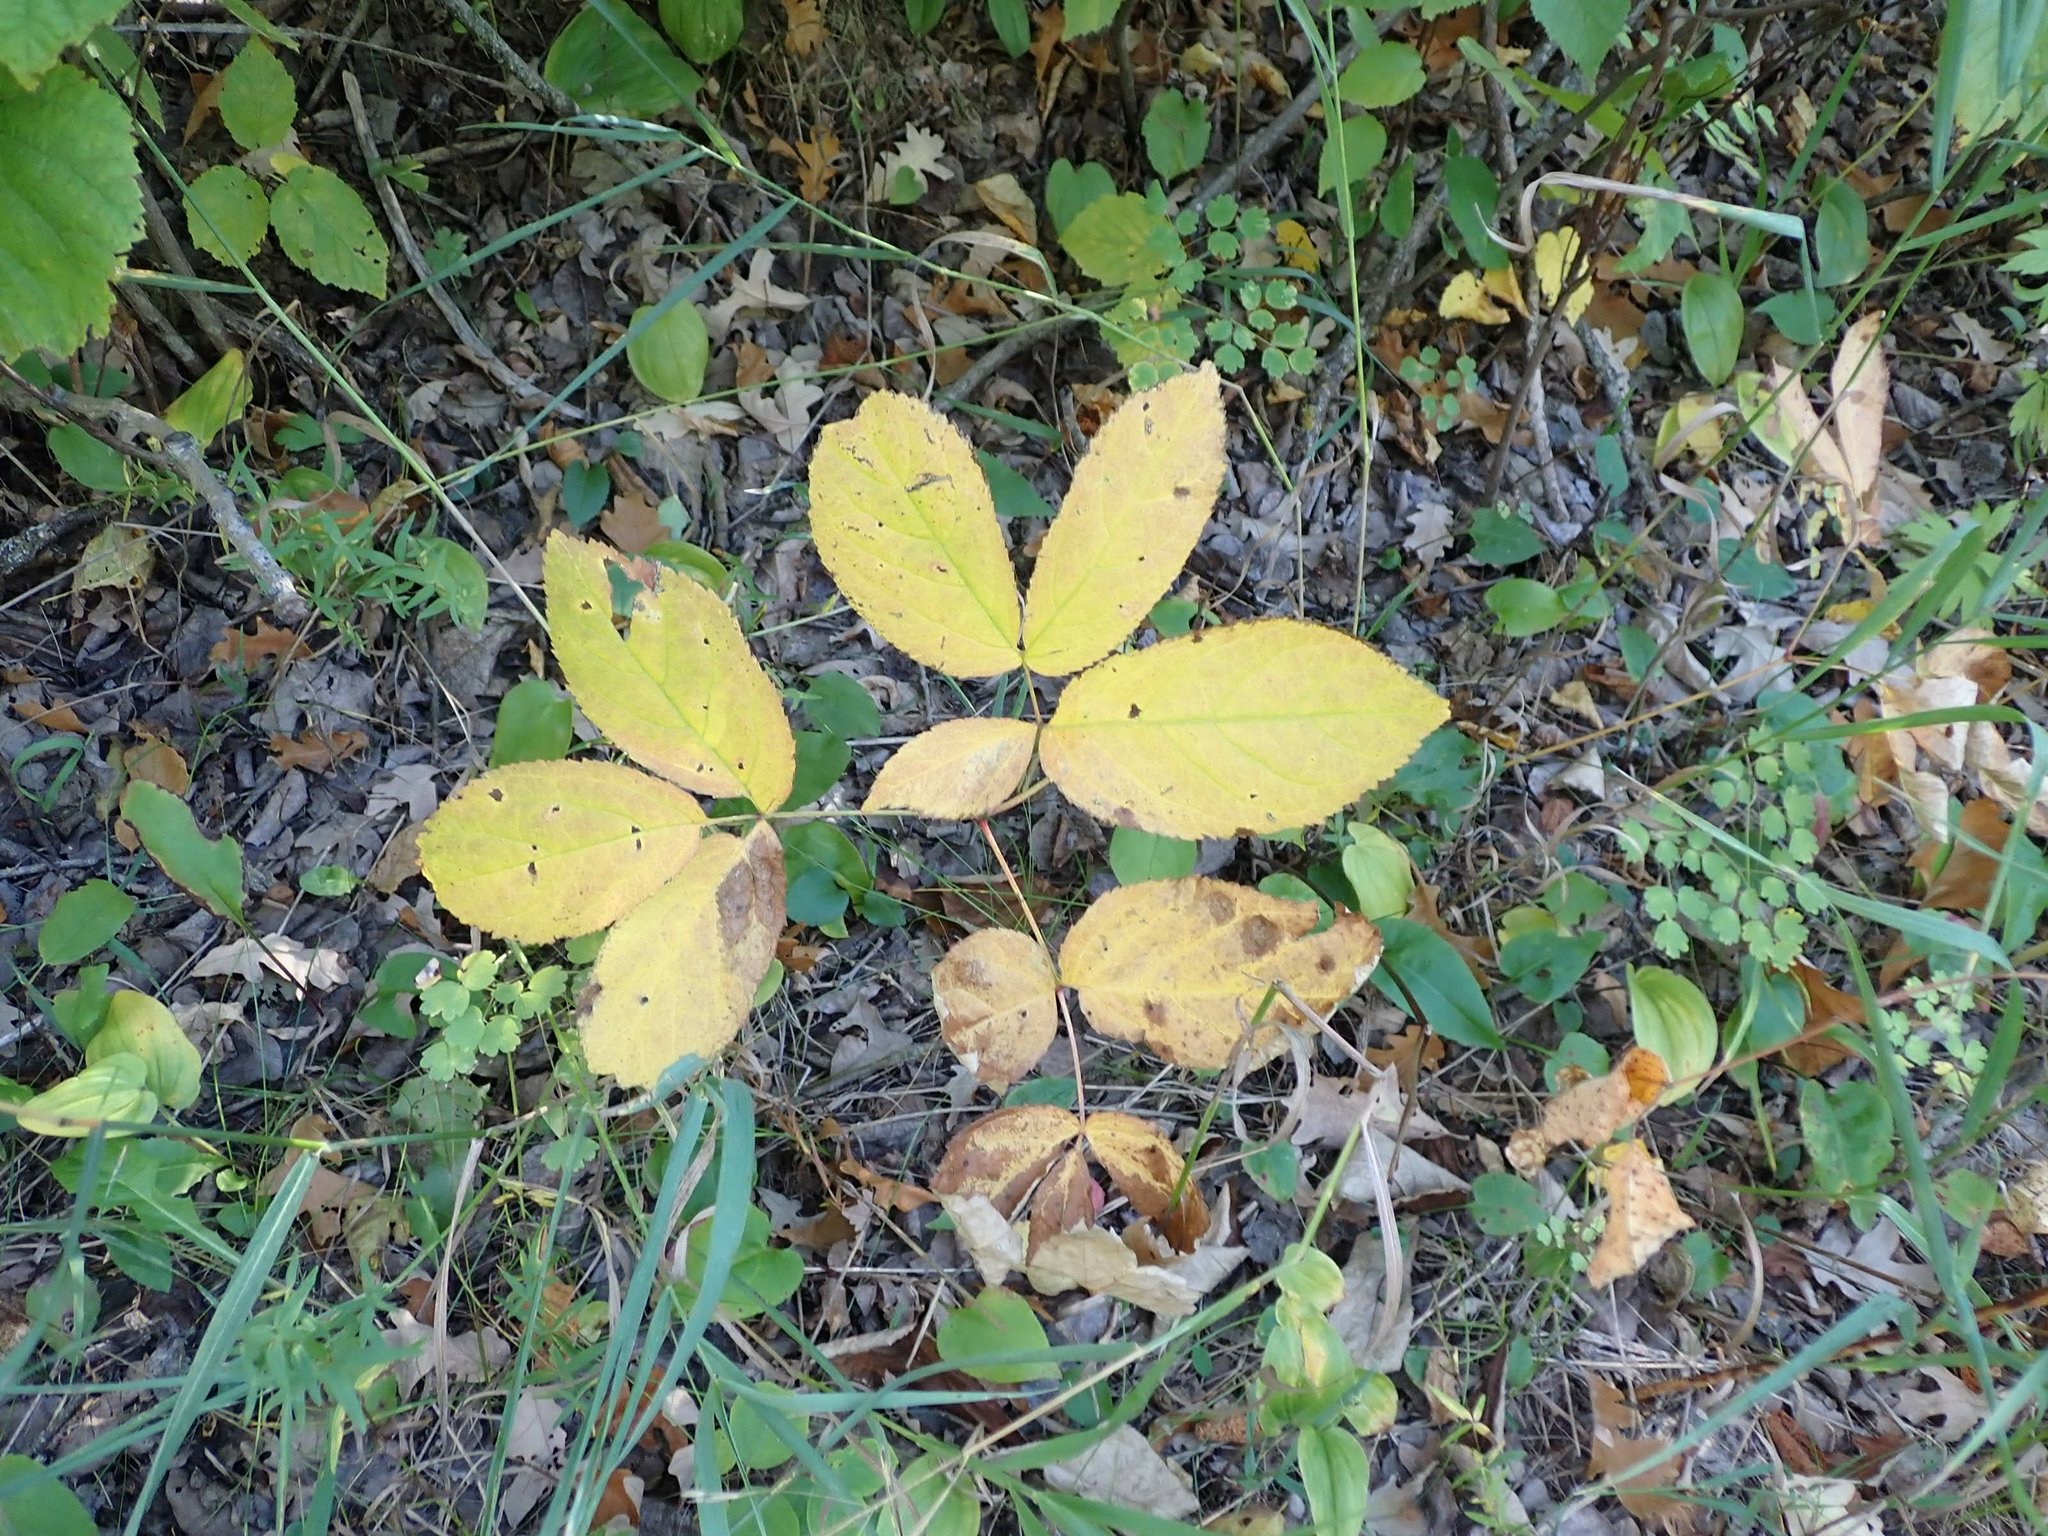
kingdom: Plantae
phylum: Tracheophyta
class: Magnoliopsida
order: Apiales
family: Araliaceae
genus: Aralia
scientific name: Aralia nudicaulis
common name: Wild sarsaparilla
